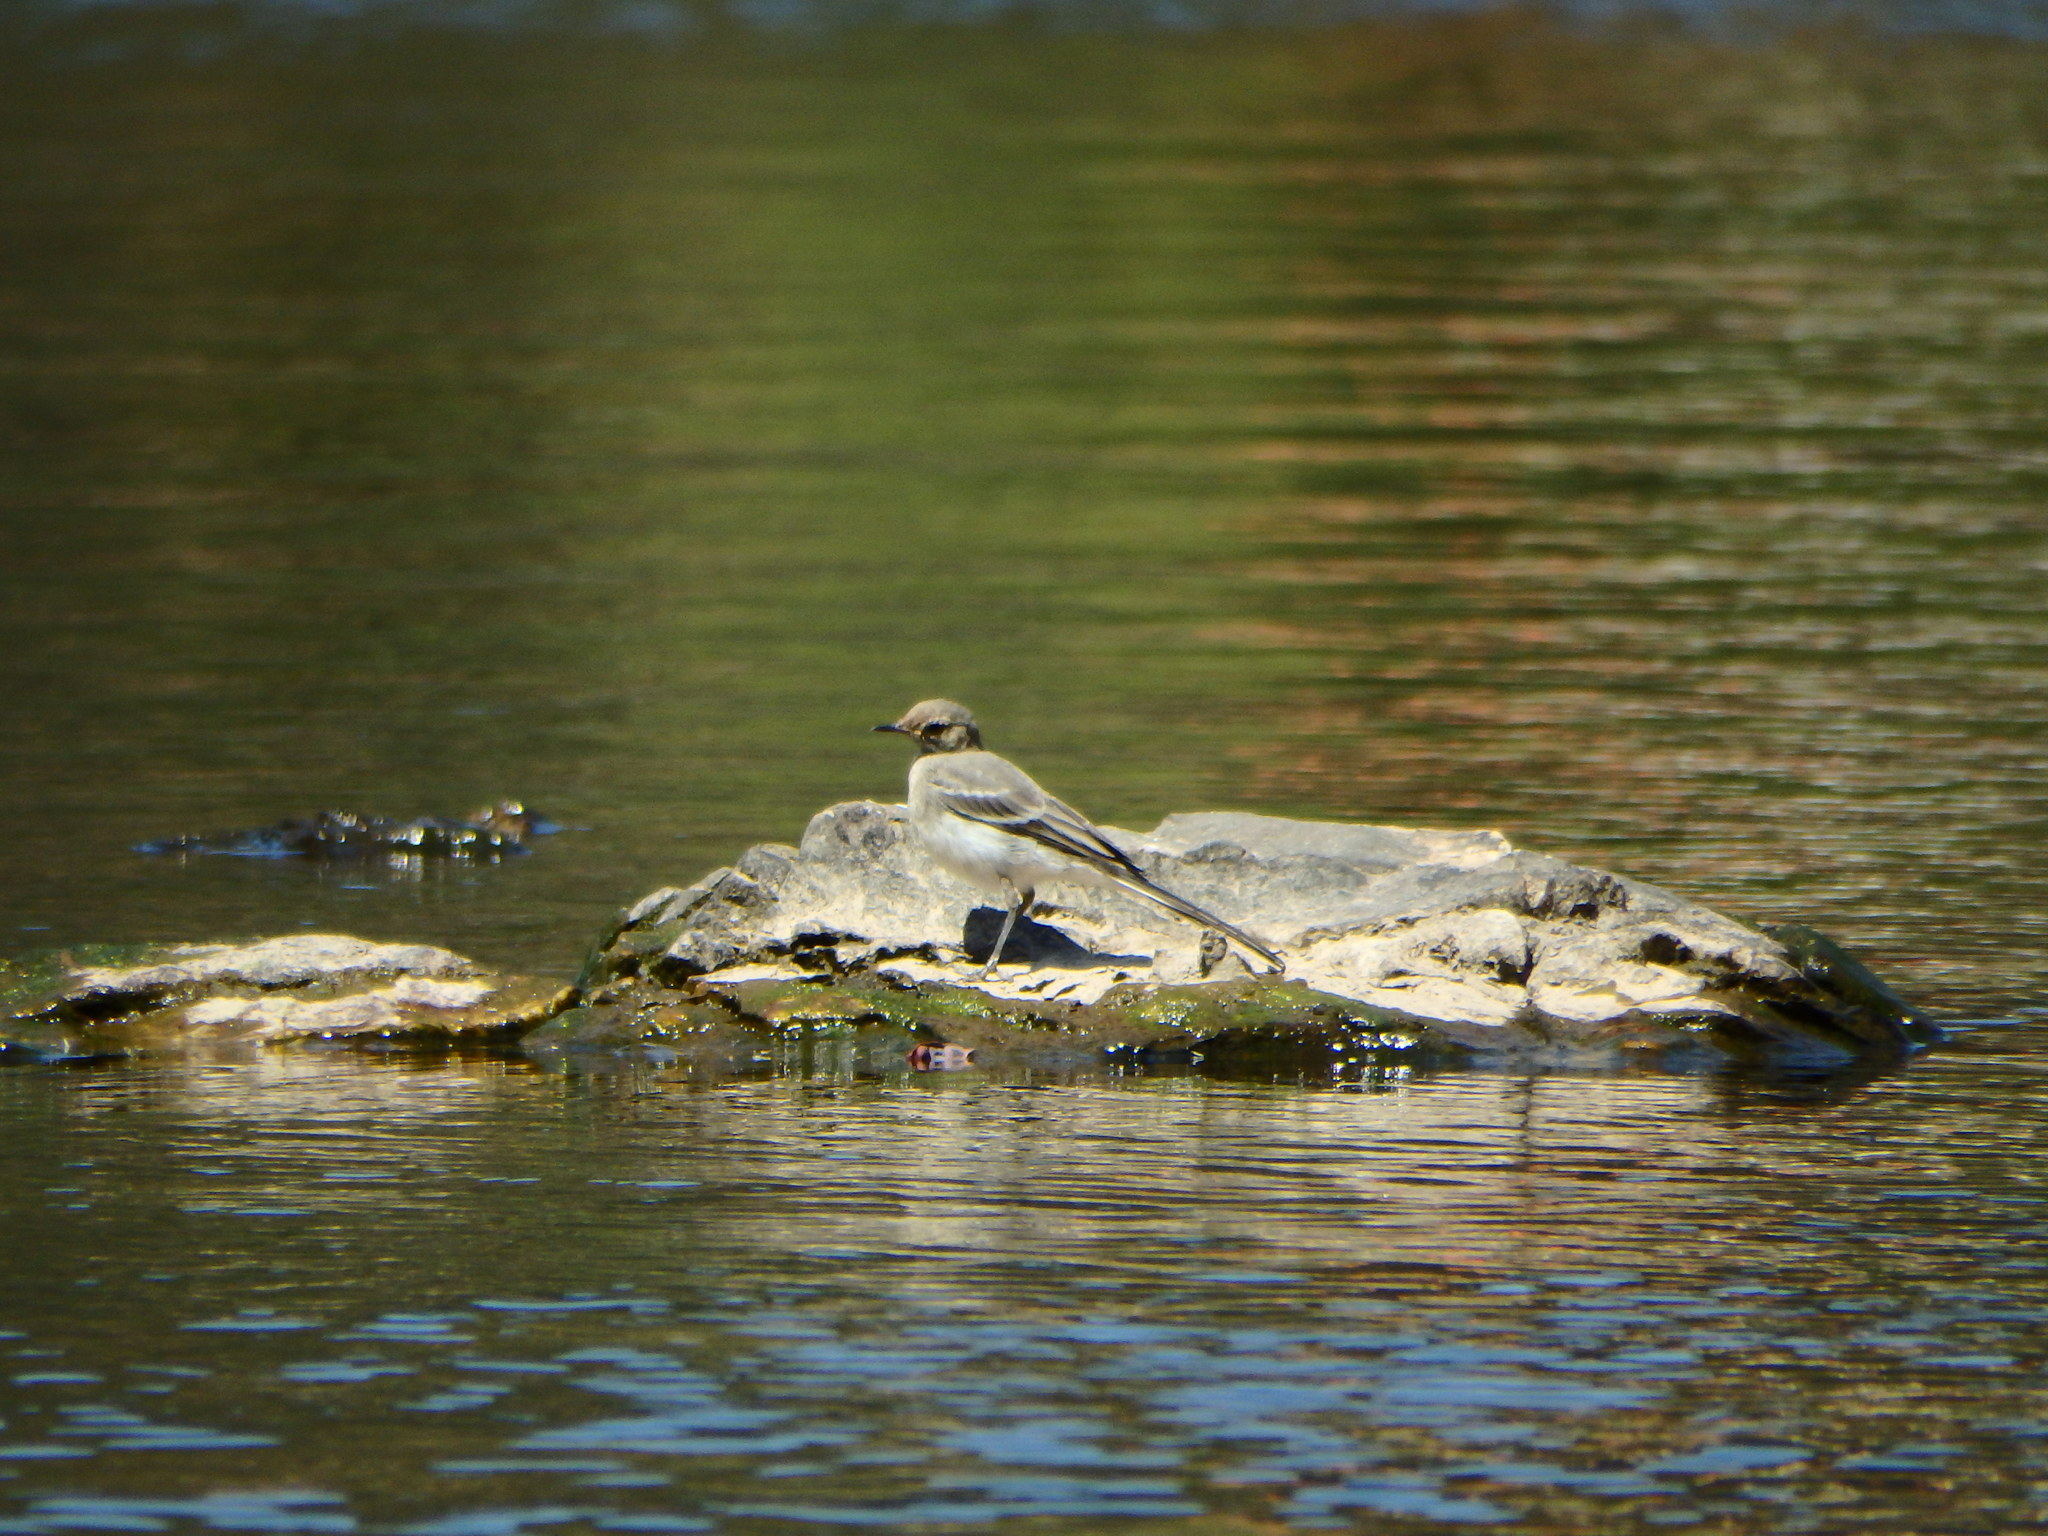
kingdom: Animalia
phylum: Chordata
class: Aves
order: Passeriformes
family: Motacillidae
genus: Motacilla
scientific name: Motacilla alba
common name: White wagtail
